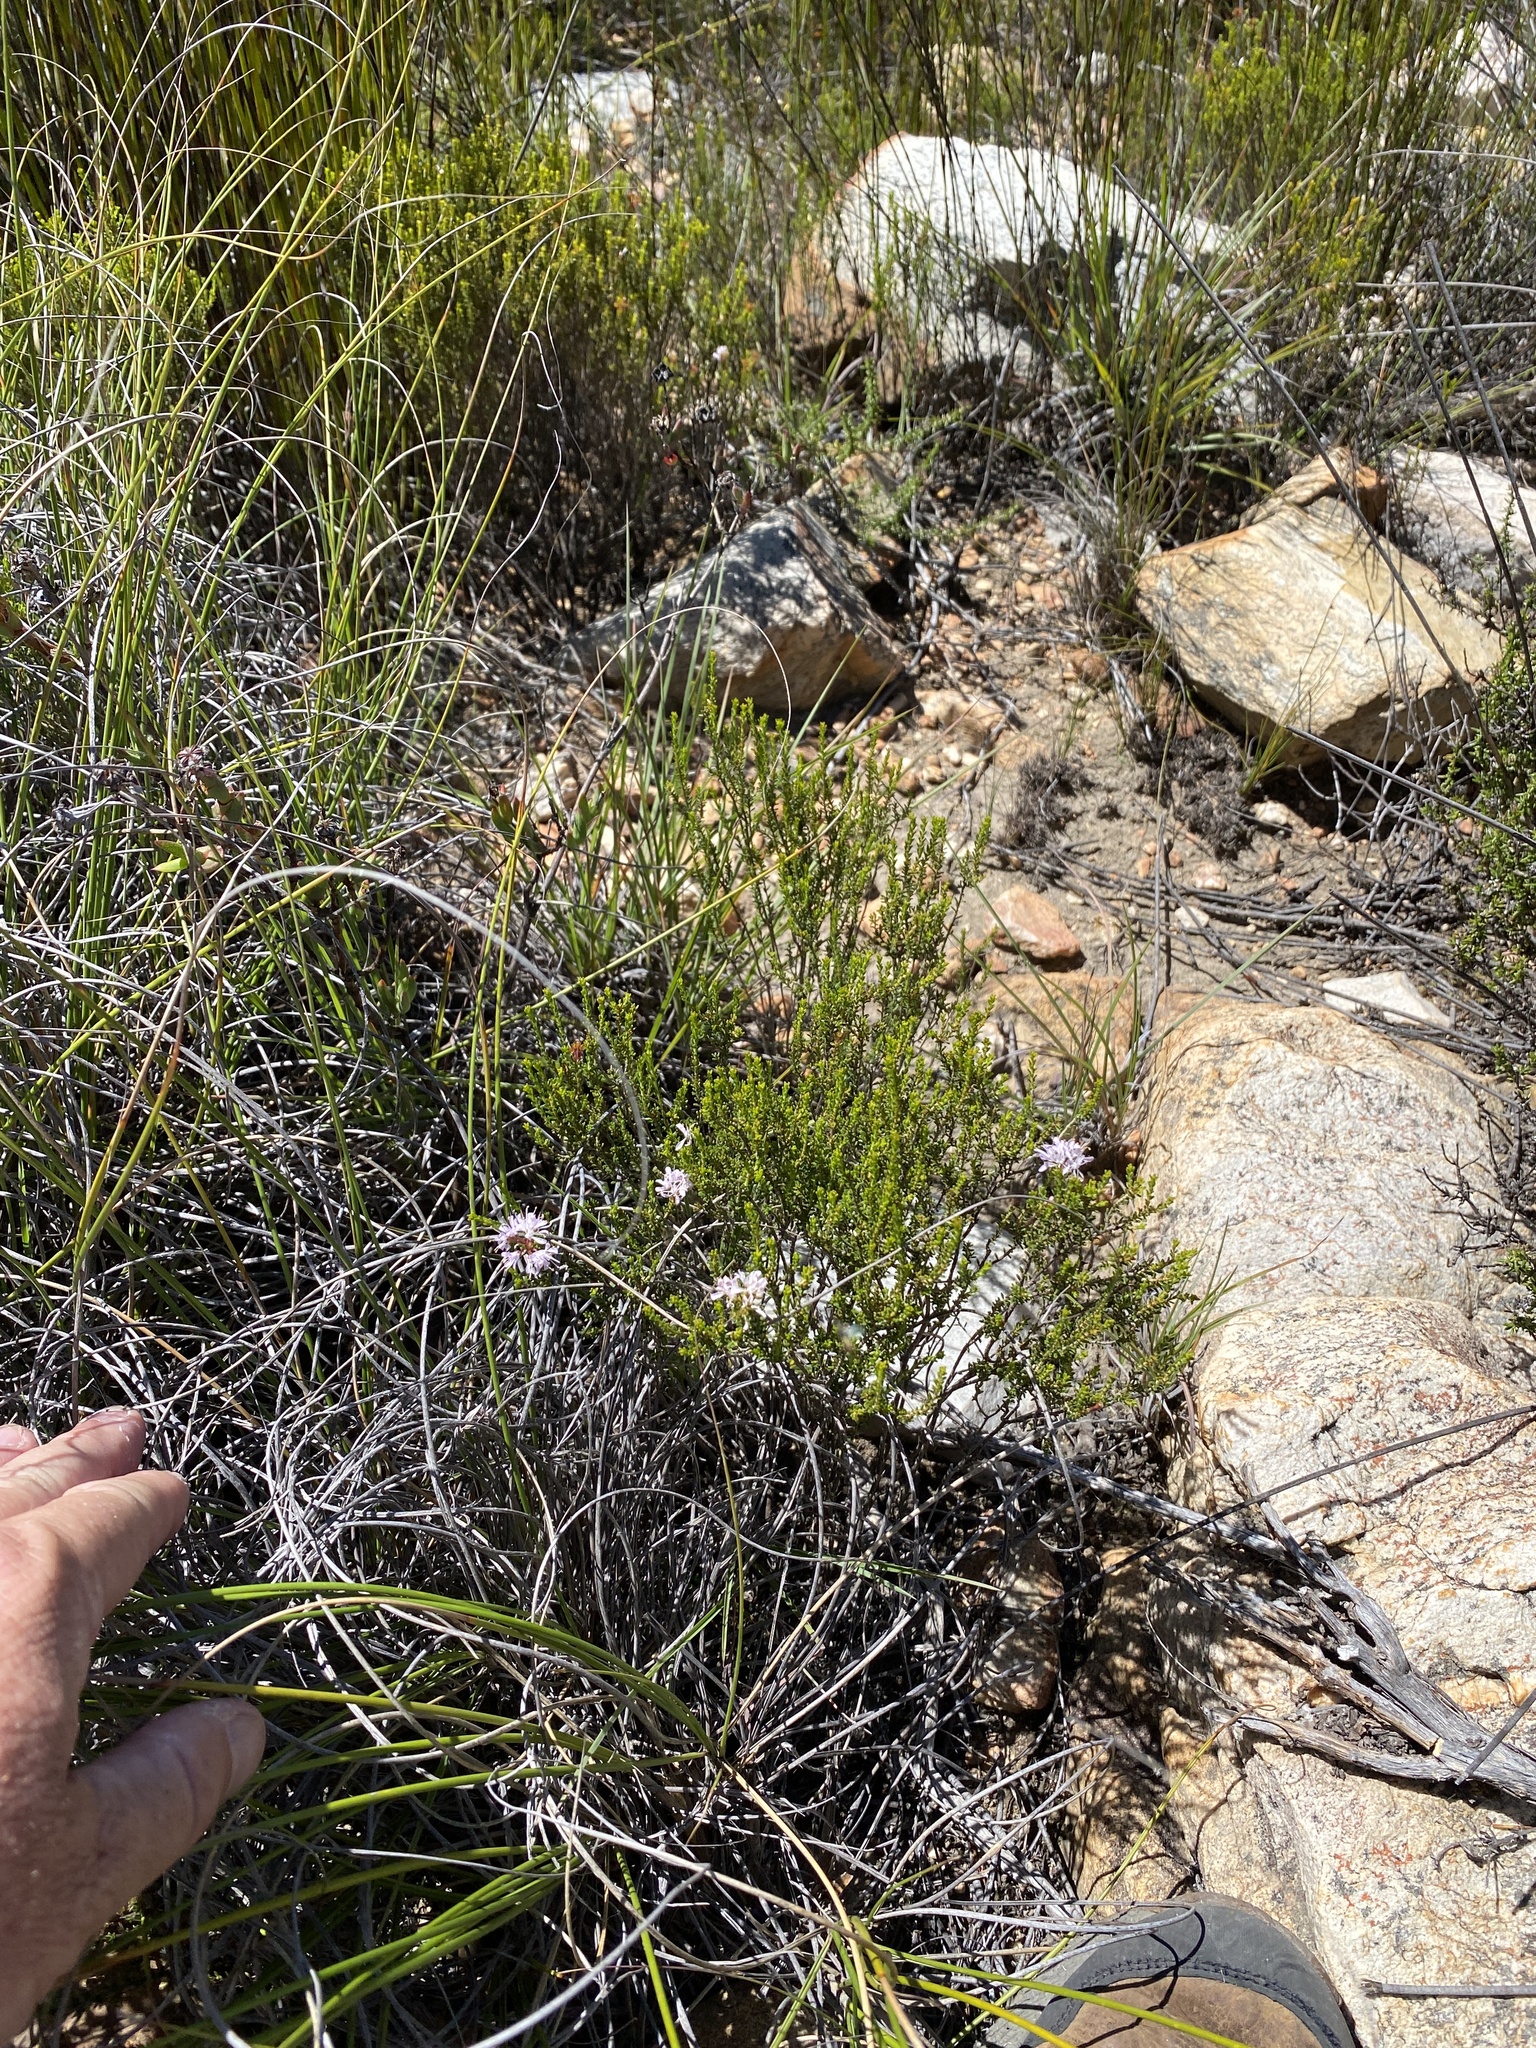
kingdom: Plantae
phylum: Tracheophyta
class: Magnoliopsida
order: Sapindales
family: Rutaceae
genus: Agathosma
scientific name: Agathosma capensis
